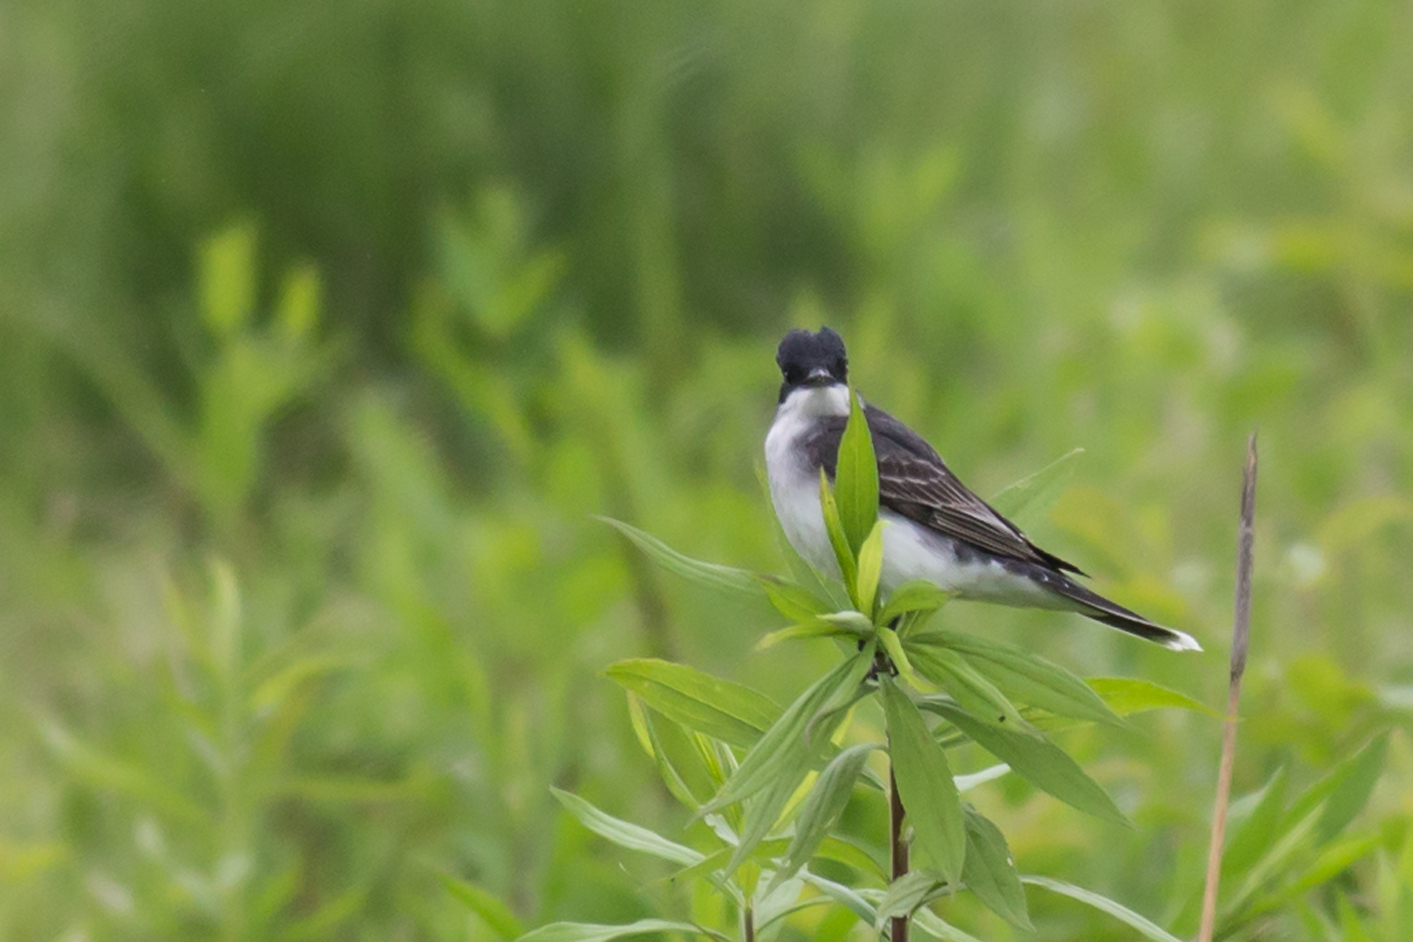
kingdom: Animalia
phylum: Chordata
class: Aves
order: Passeriformes
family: Tyrannidae
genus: Tyrannus
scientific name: Tyrannus tyrannus
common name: Eastern kingbird
